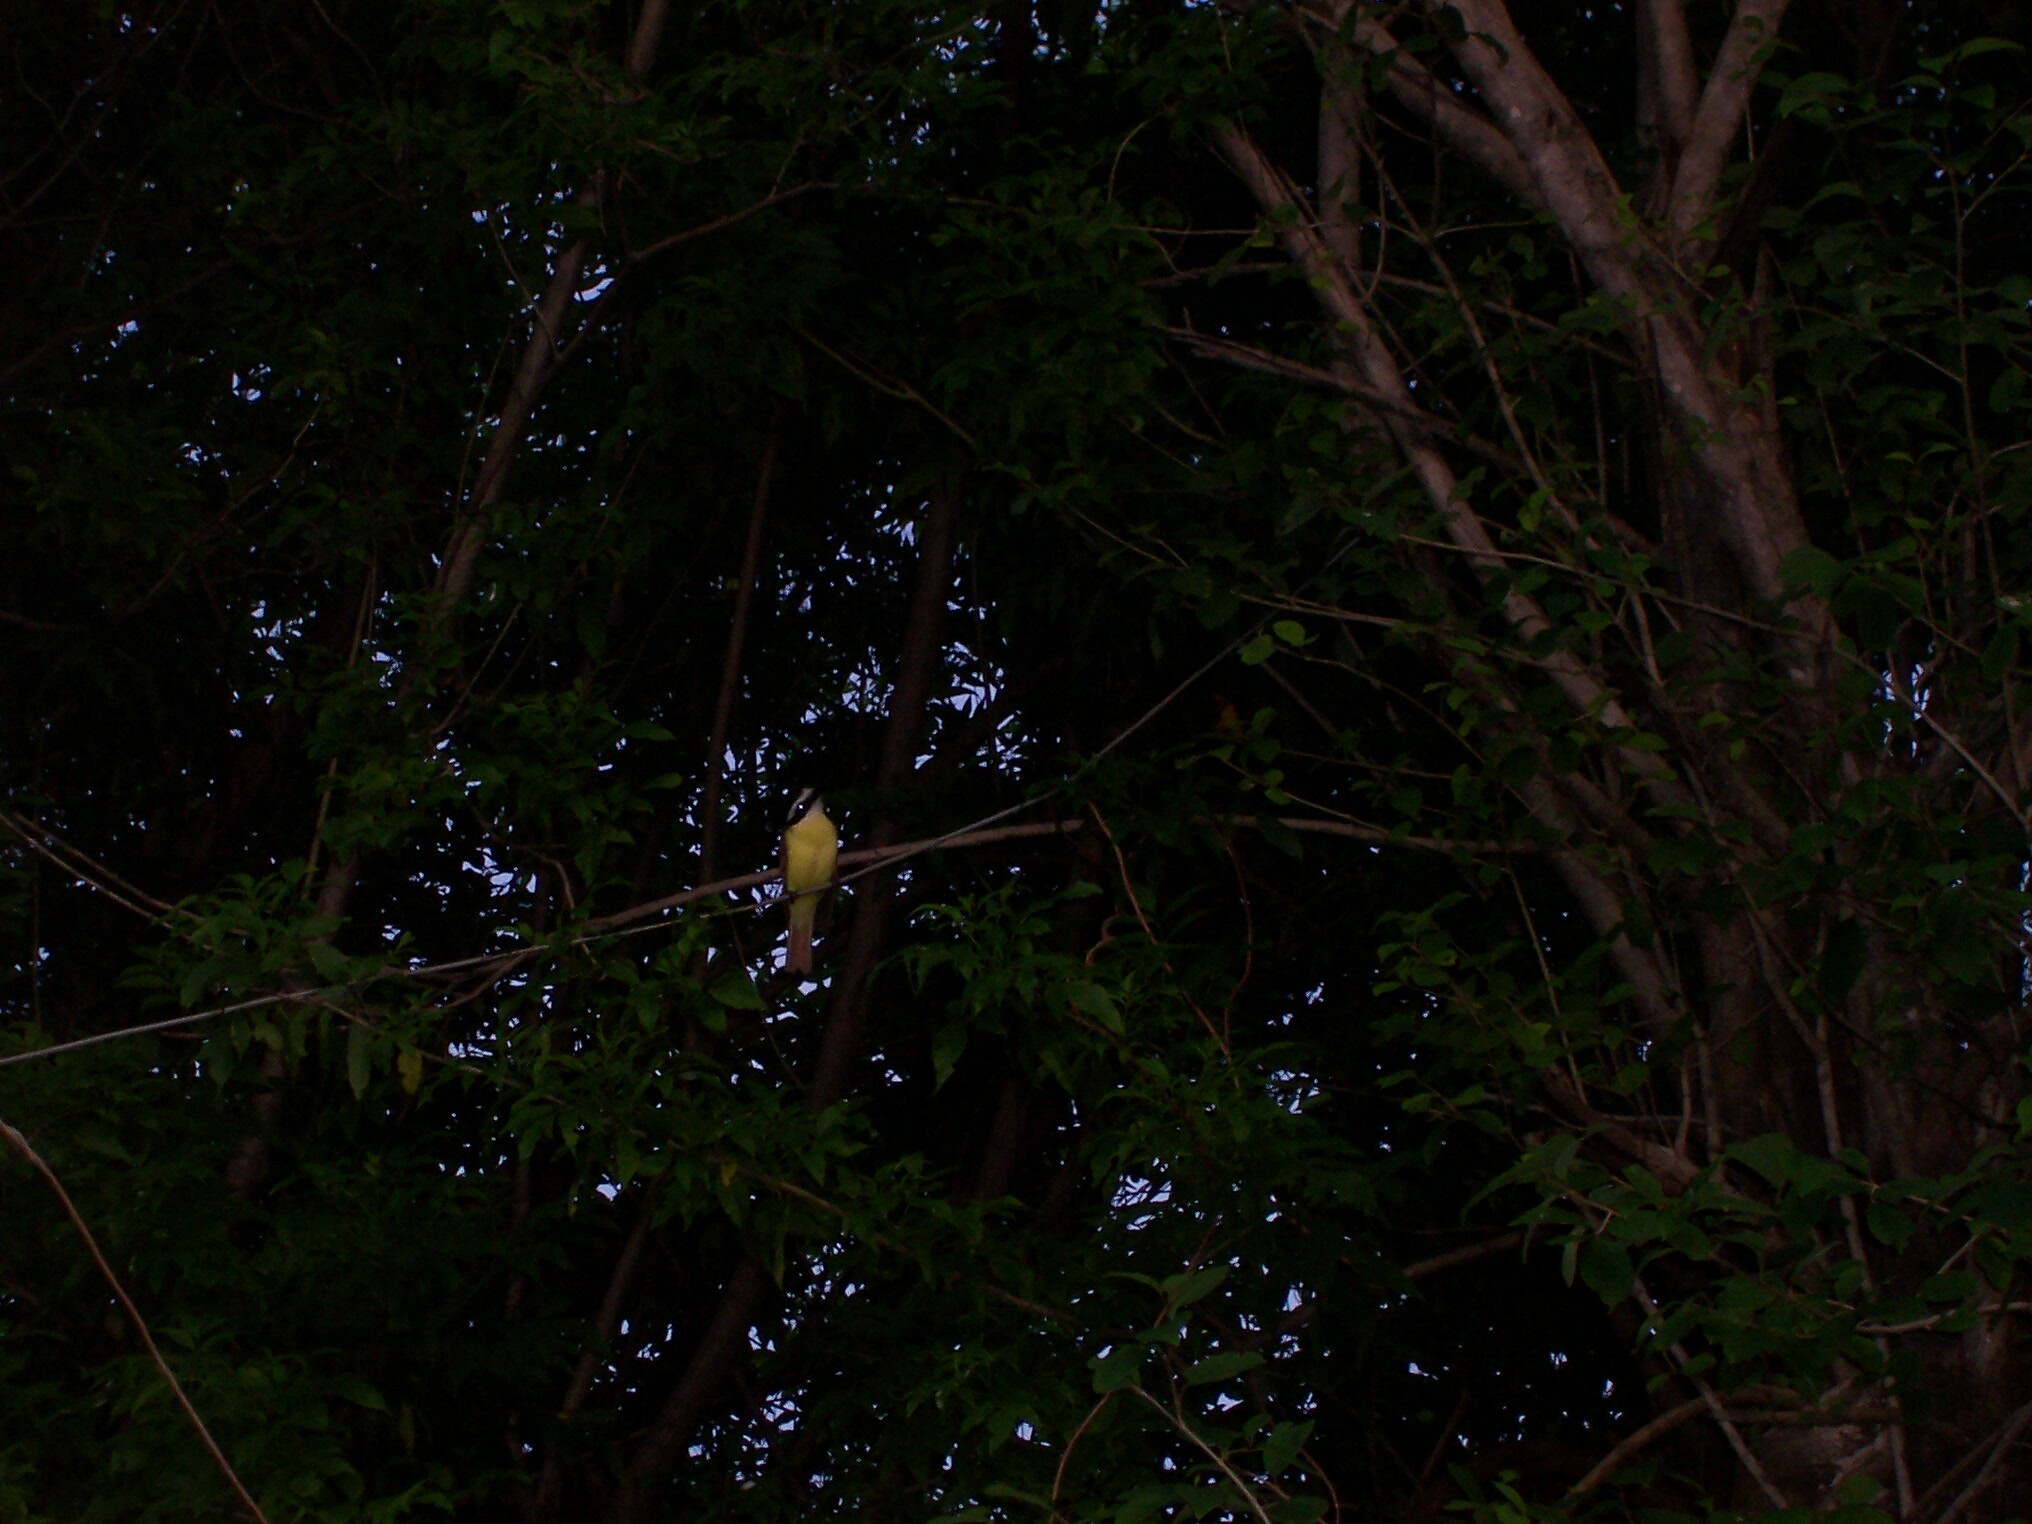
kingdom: Animalia
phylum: Chordata
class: Aves
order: Passeriformes
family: Tyrannidae
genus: Pitangus
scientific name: Pitangus sulphuratus
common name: Great kiskadee
